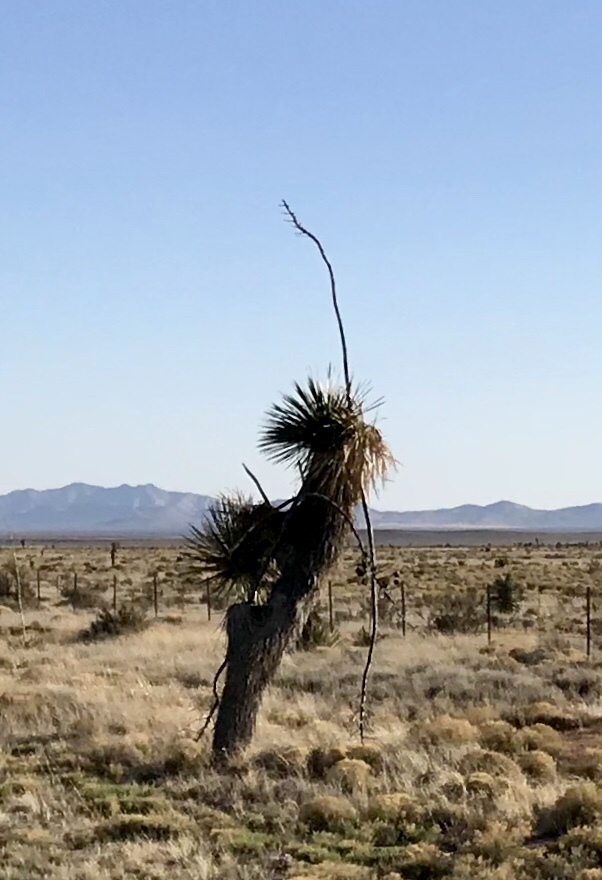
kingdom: Plantae
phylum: Tracheophyta
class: Liliopsida
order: Asparagales
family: Asparagaceae
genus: Yucca
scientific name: Yucca elata
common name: Palmella
